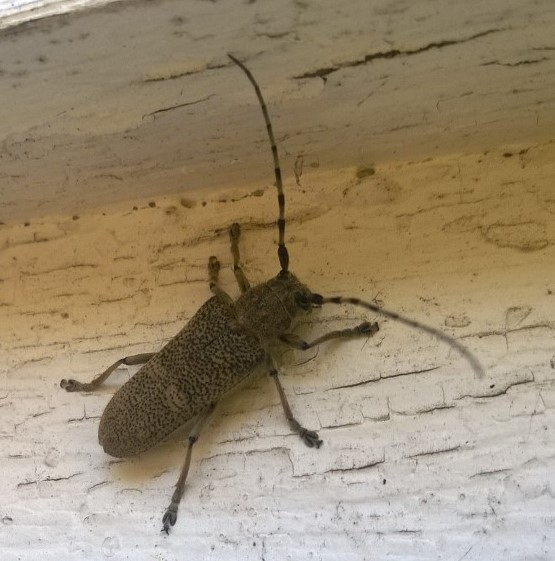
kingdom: Animalia
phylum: Arthropoda
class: Insecta
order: Coleoptera
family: Cerambycidae
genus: Saperda
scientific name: Saperda carcharias
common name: Poplar borer
